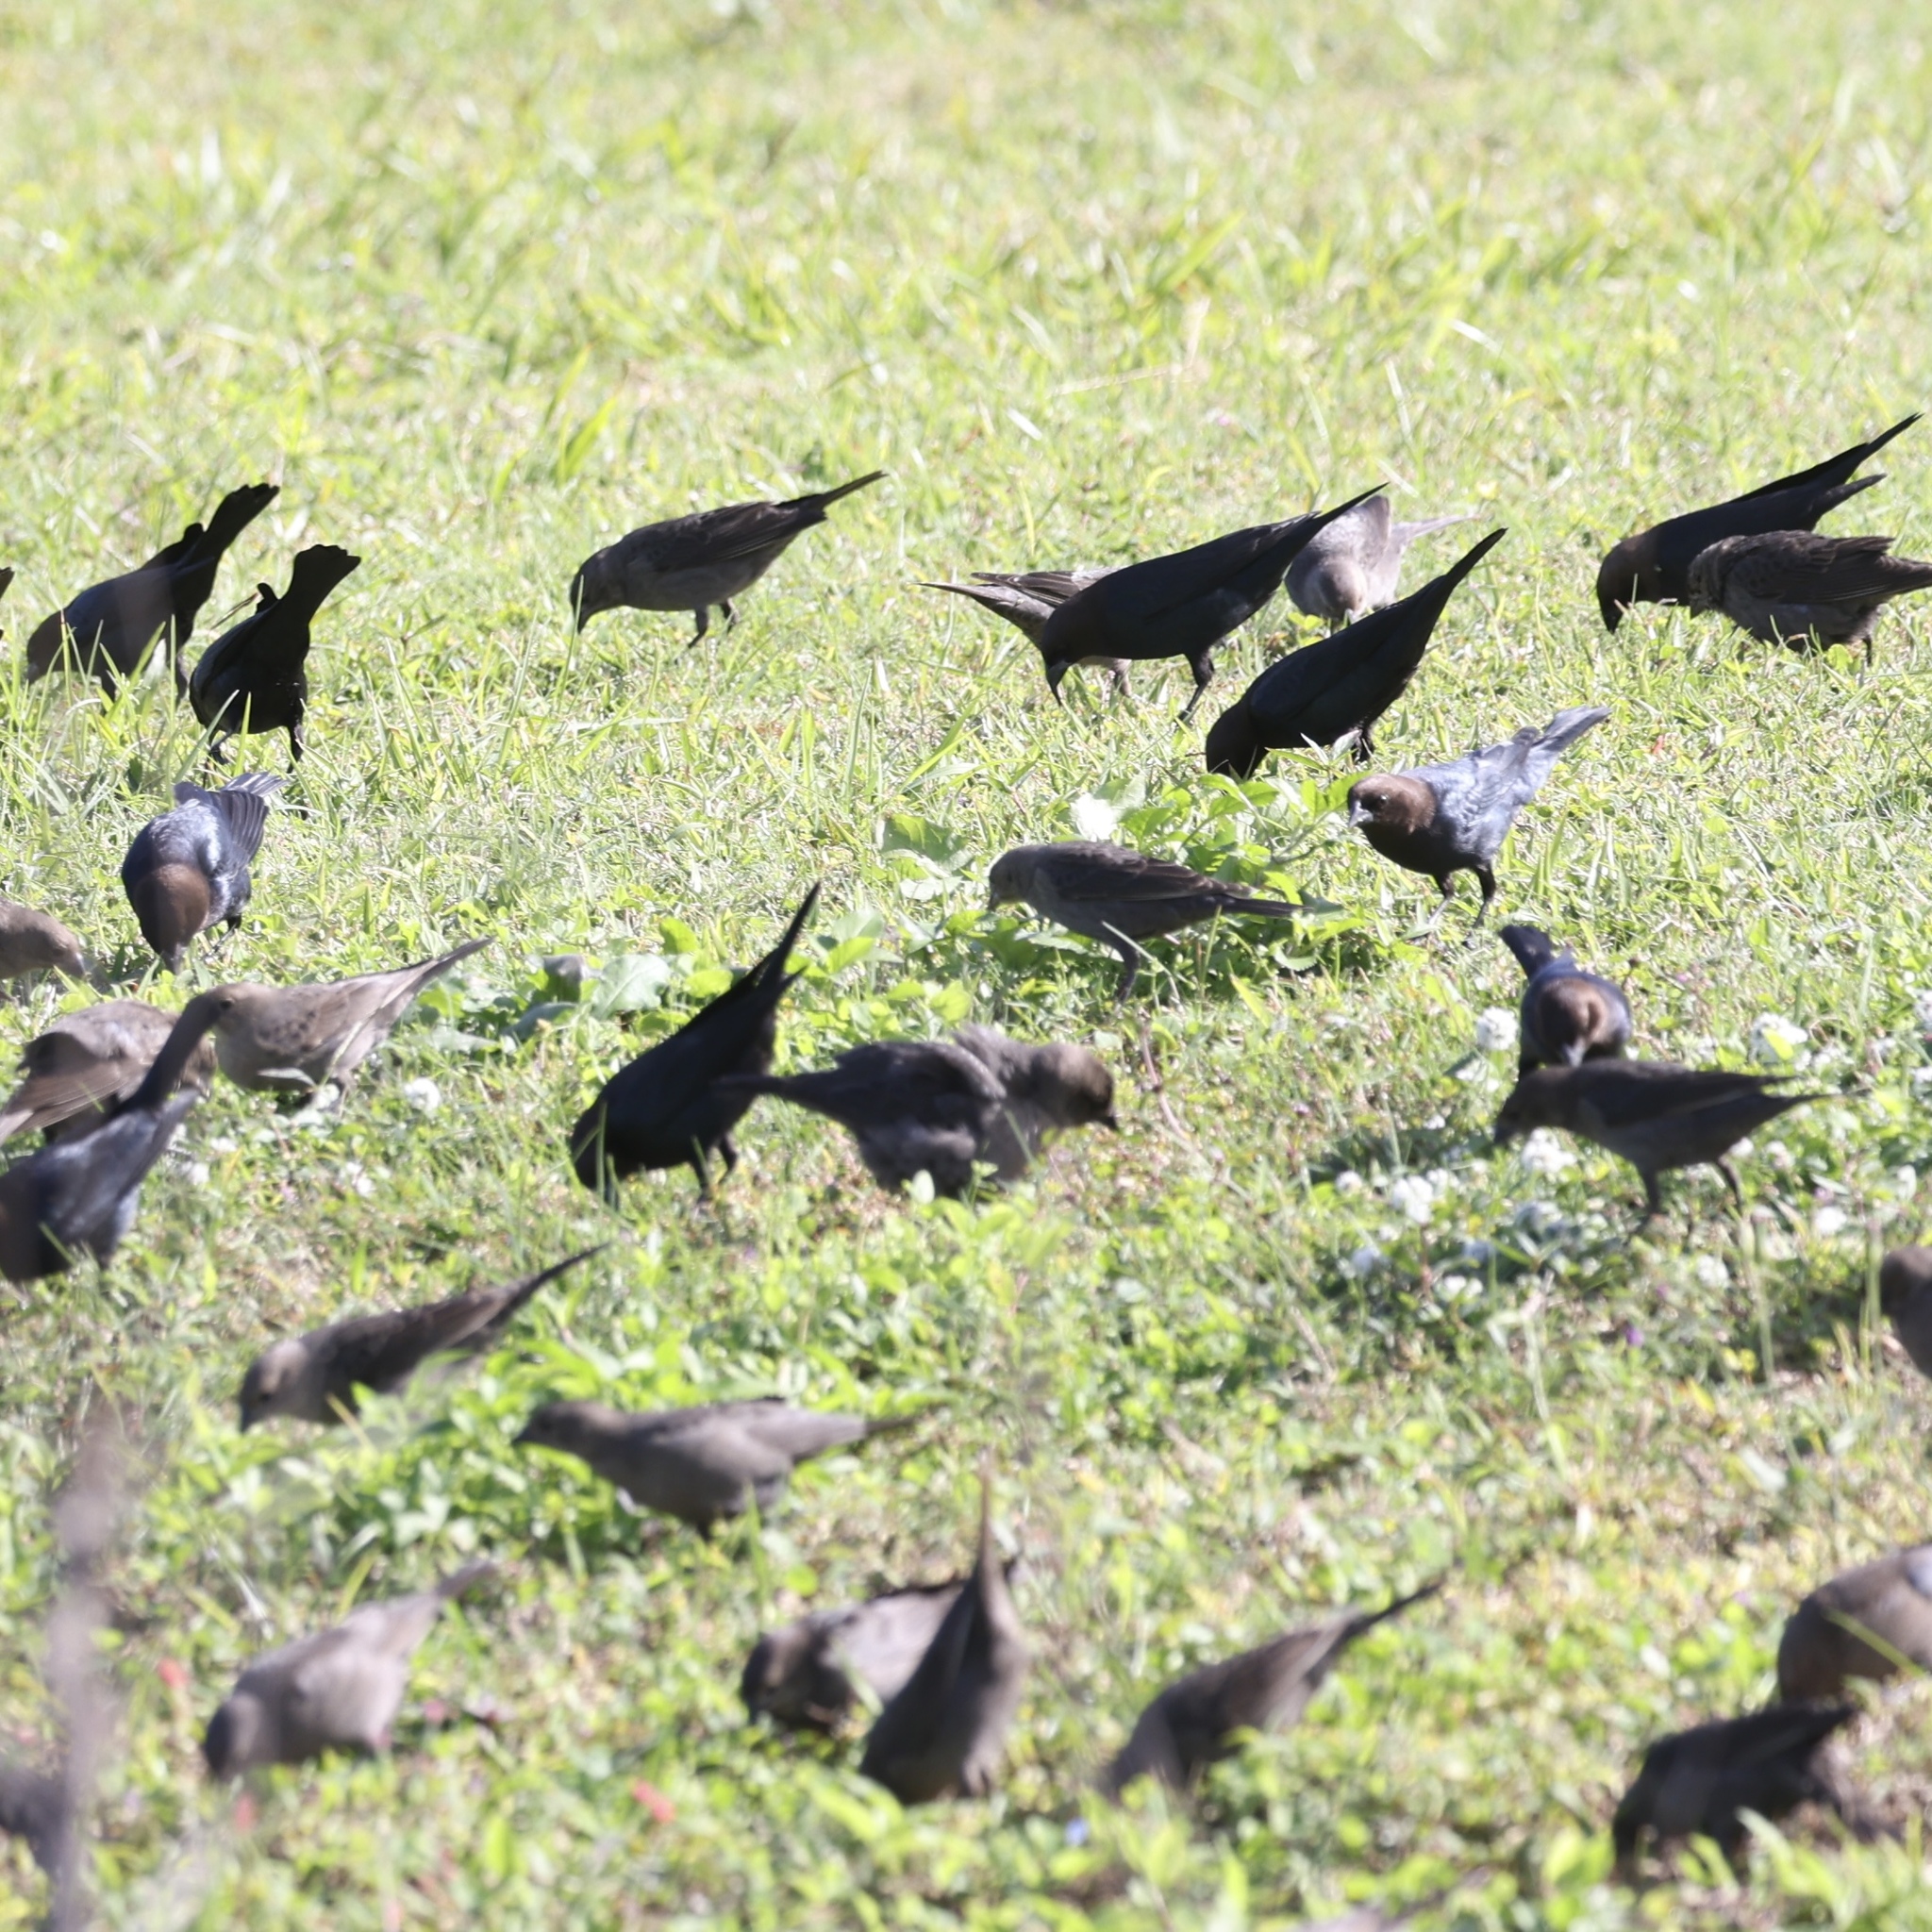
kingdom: Animalia
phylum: Chordata
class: Aves
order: Passeriformes
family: Icteridae
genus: Molothrus
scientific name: Molothrus ater
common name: Brown-headed cowbird
